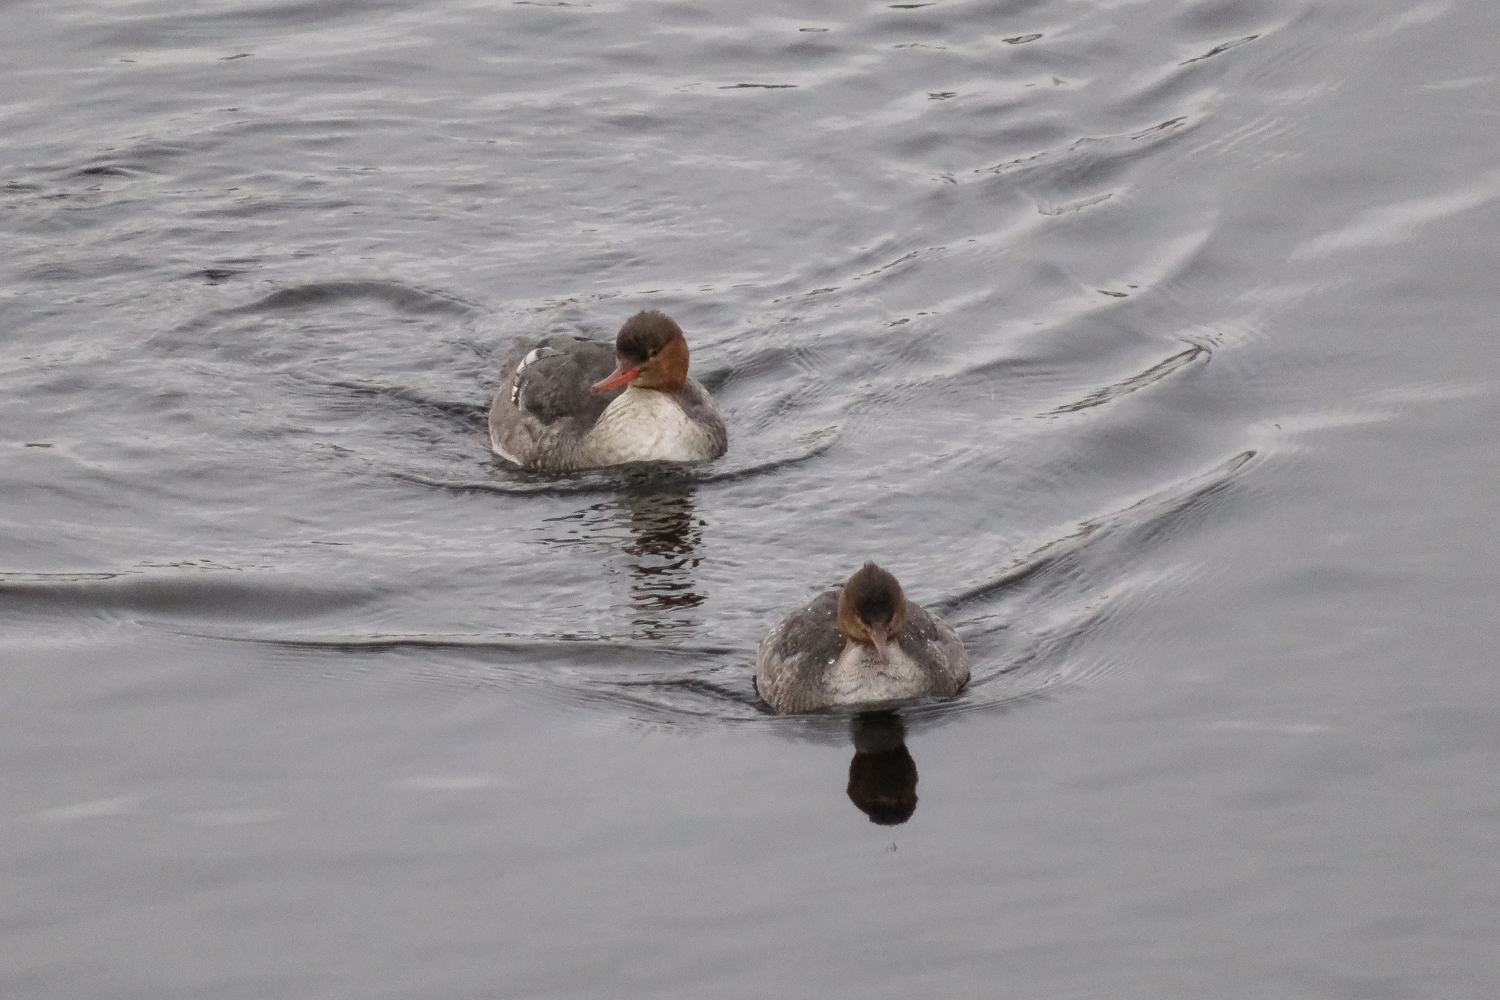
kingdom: Animalia
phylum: Chordata
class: Aves
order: Anseriformes
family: Anatidae
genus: Mergus
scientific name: Mergus serrator
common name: Red-breasted merganser
